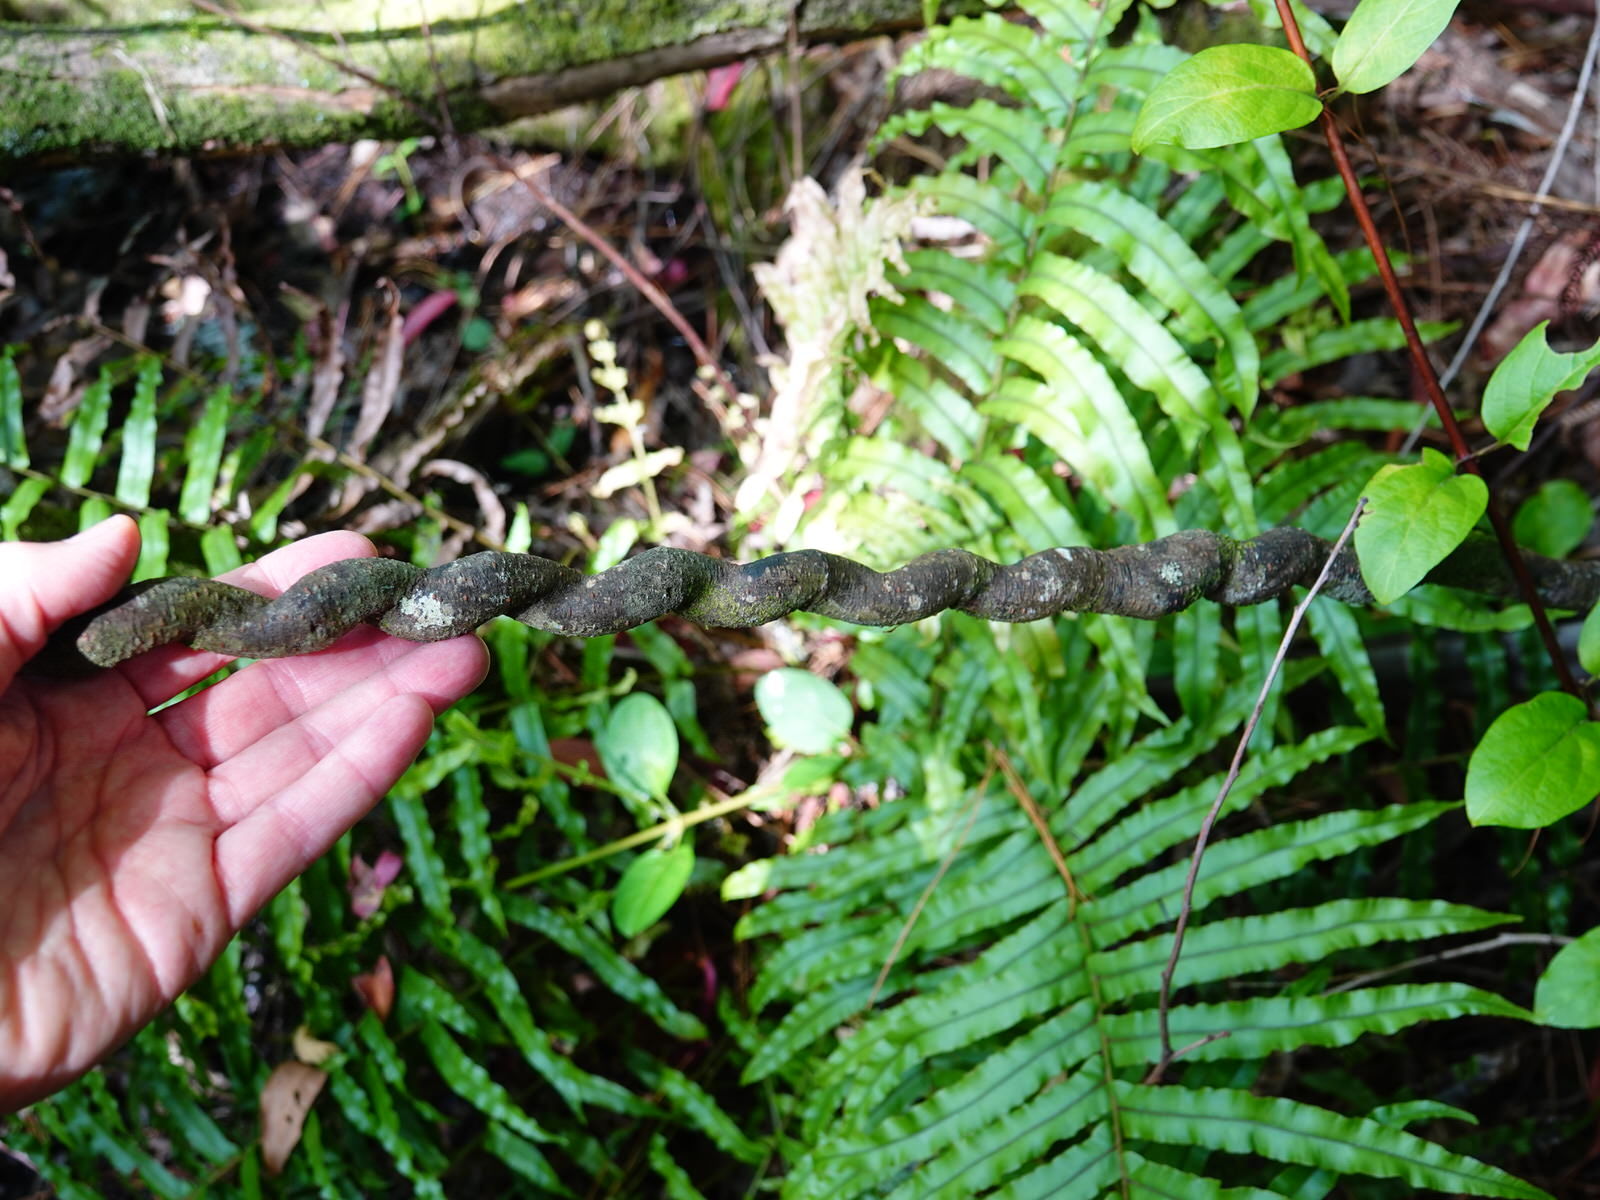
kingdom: Plantae
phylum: Tracheophyta
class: Magnoliopsida
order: Caryophyllales
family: Polygonaceae
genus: Muehlenbeckia
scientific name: Muehlenbeckia australis
